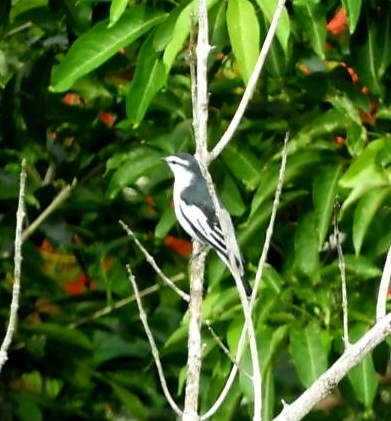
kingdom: Animalia
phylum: Chordata
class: Aves
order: Passeriformes
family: Campephagidae
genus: Lalage
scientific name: Lalage nigra
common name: Pied triller
